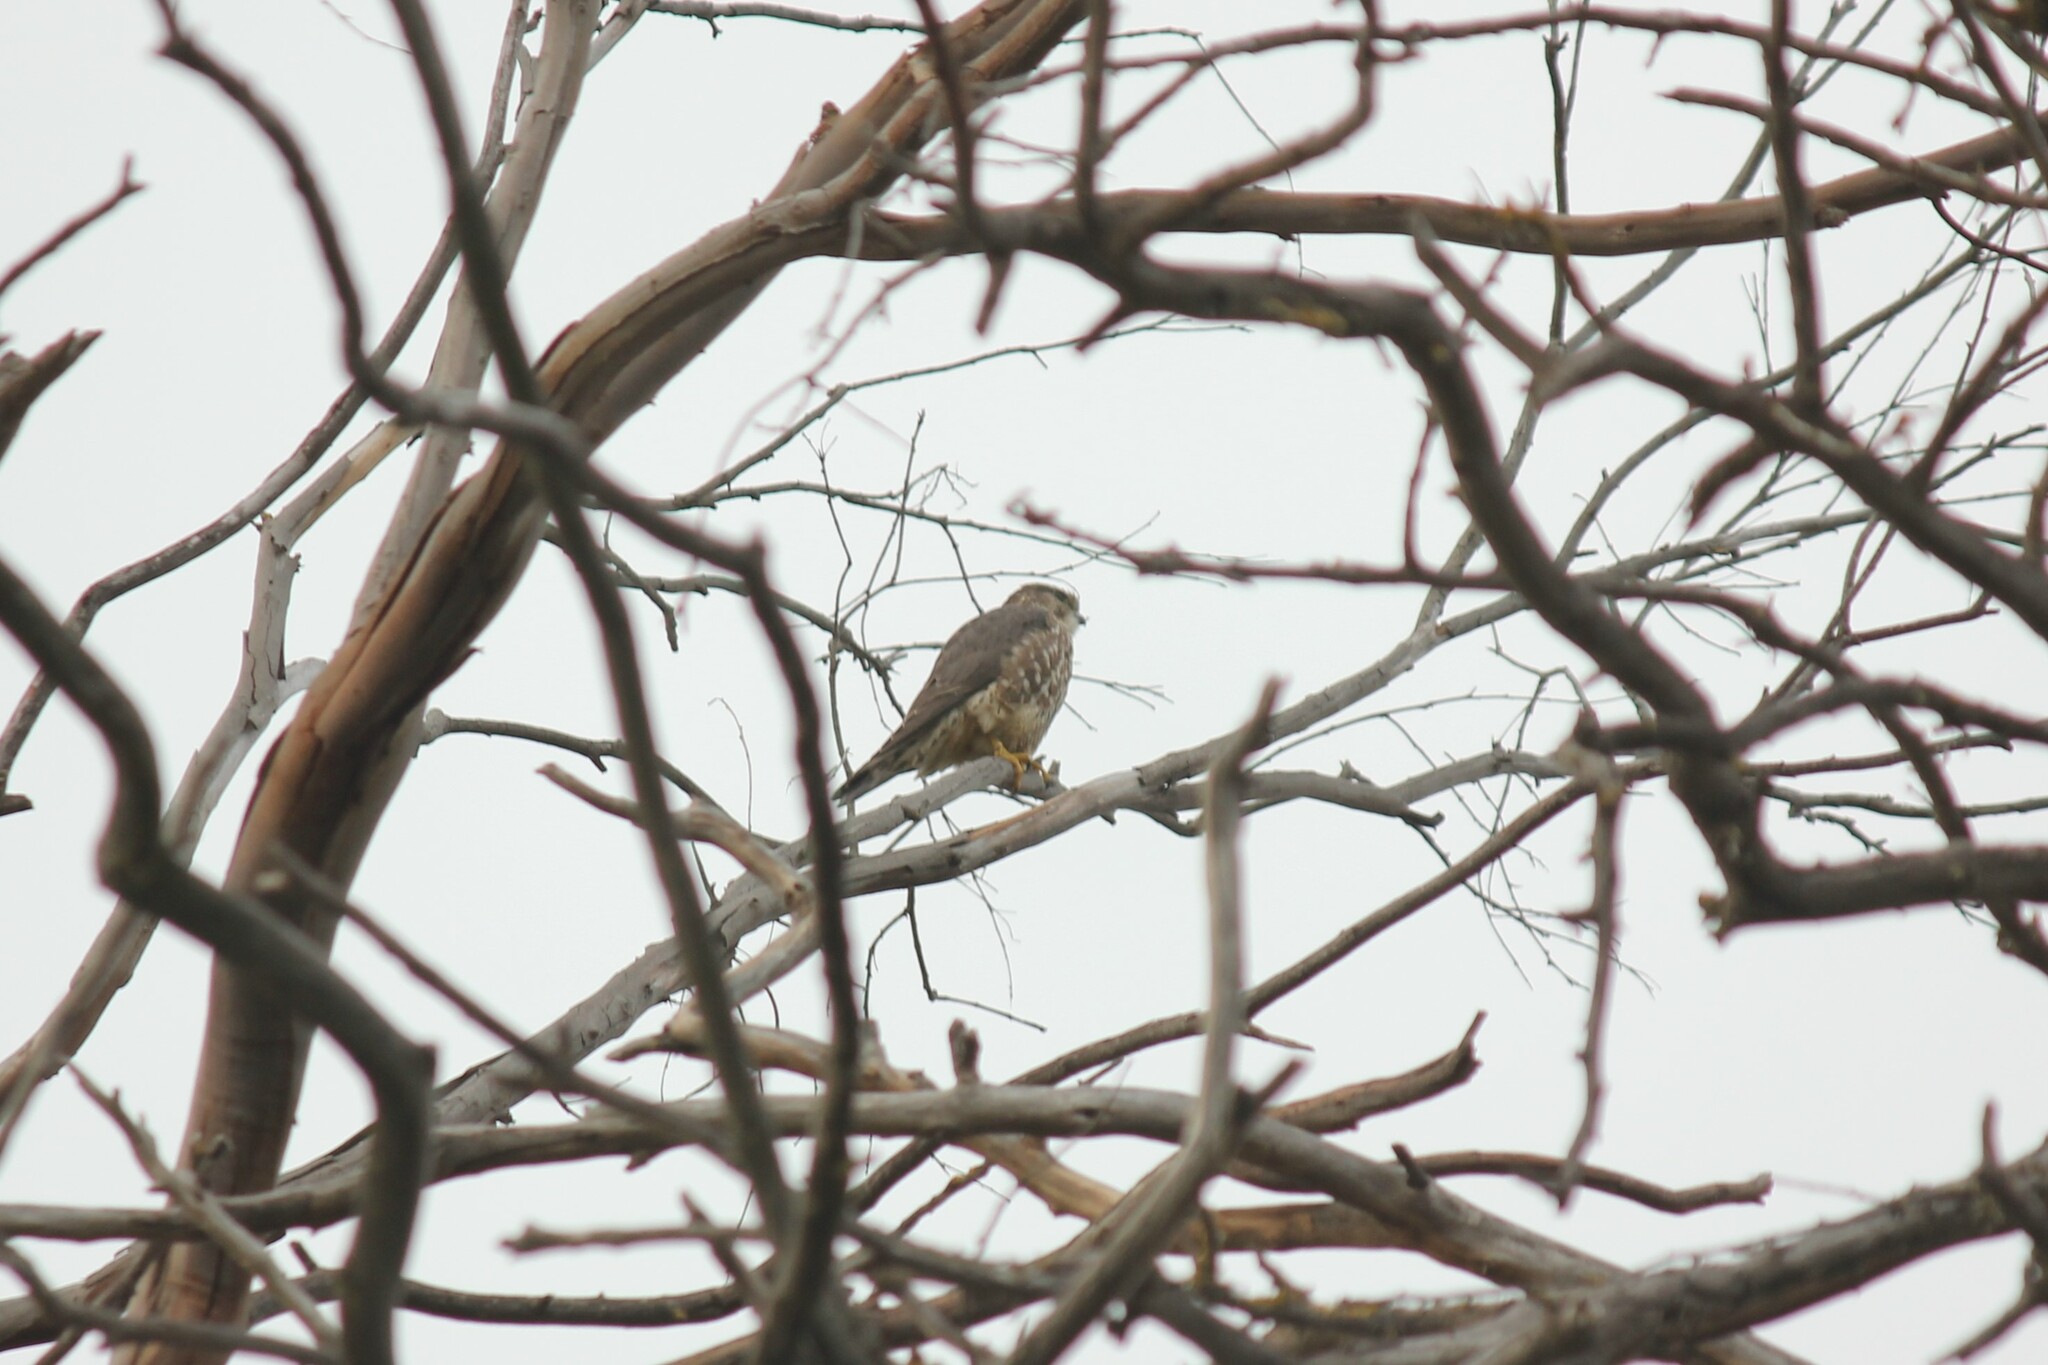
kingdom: Animalia
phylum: Chordata
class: Aves
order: Falconiformes
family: Falconidae
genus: Falco
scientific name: Falco columbarius
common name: Merlin
